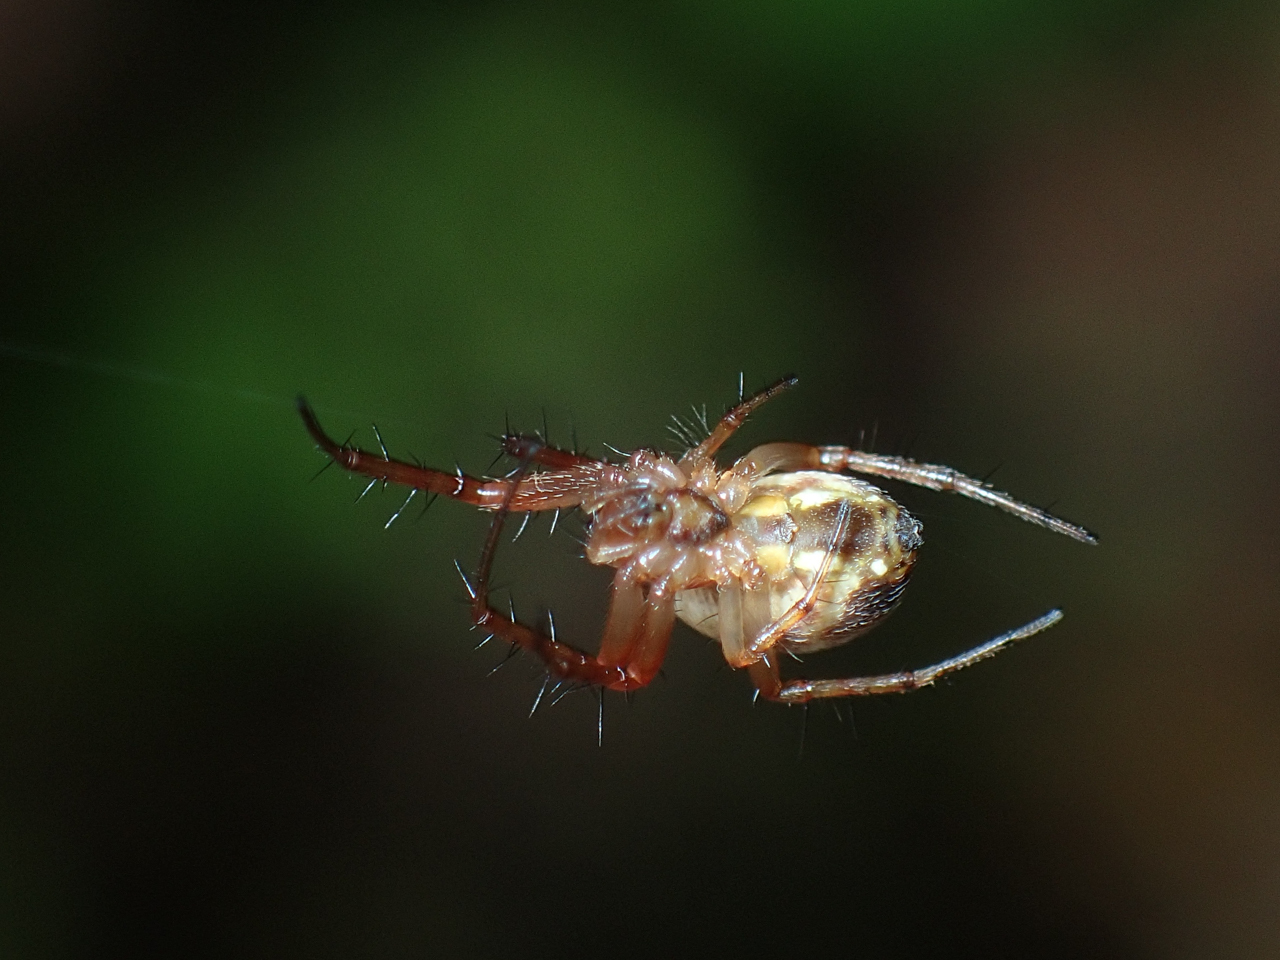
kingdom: Animalia
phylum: Arthropoda
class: Arachnida
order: Araneae
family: Araneidae
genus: Mangora
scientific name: Mangora placida
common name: Tuft-legged orbweaver
